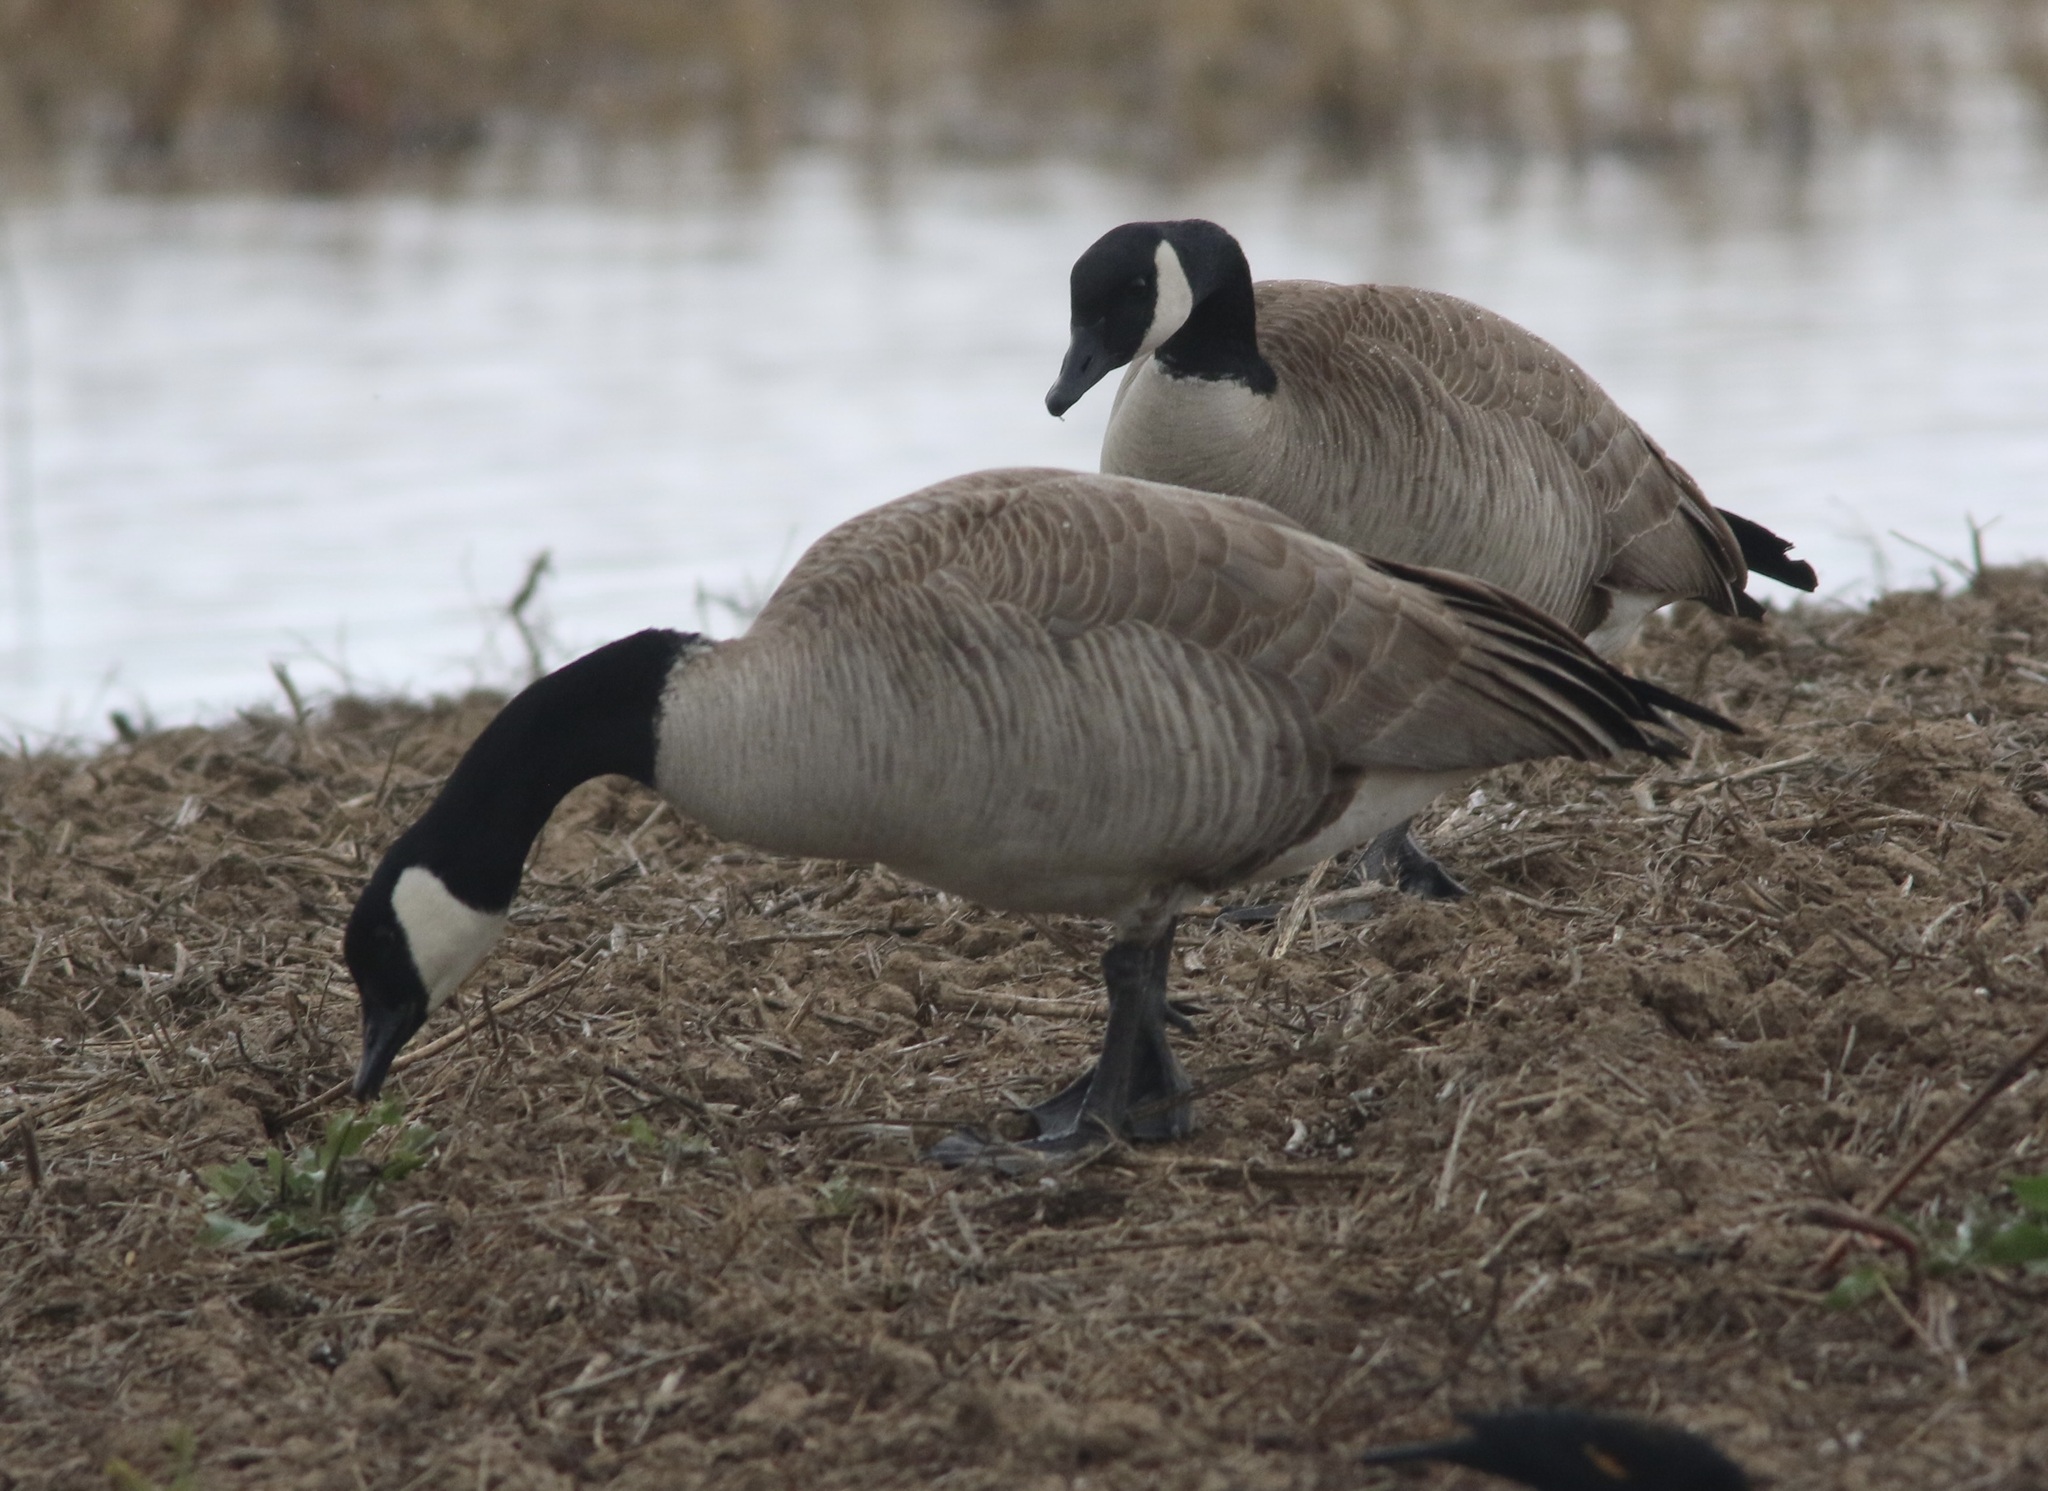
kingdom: Animalia
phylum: Chordata
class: Aves
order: Anseriformes
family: Anatidae
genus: Branta
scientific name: Branta canadensis
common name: Canada goose
